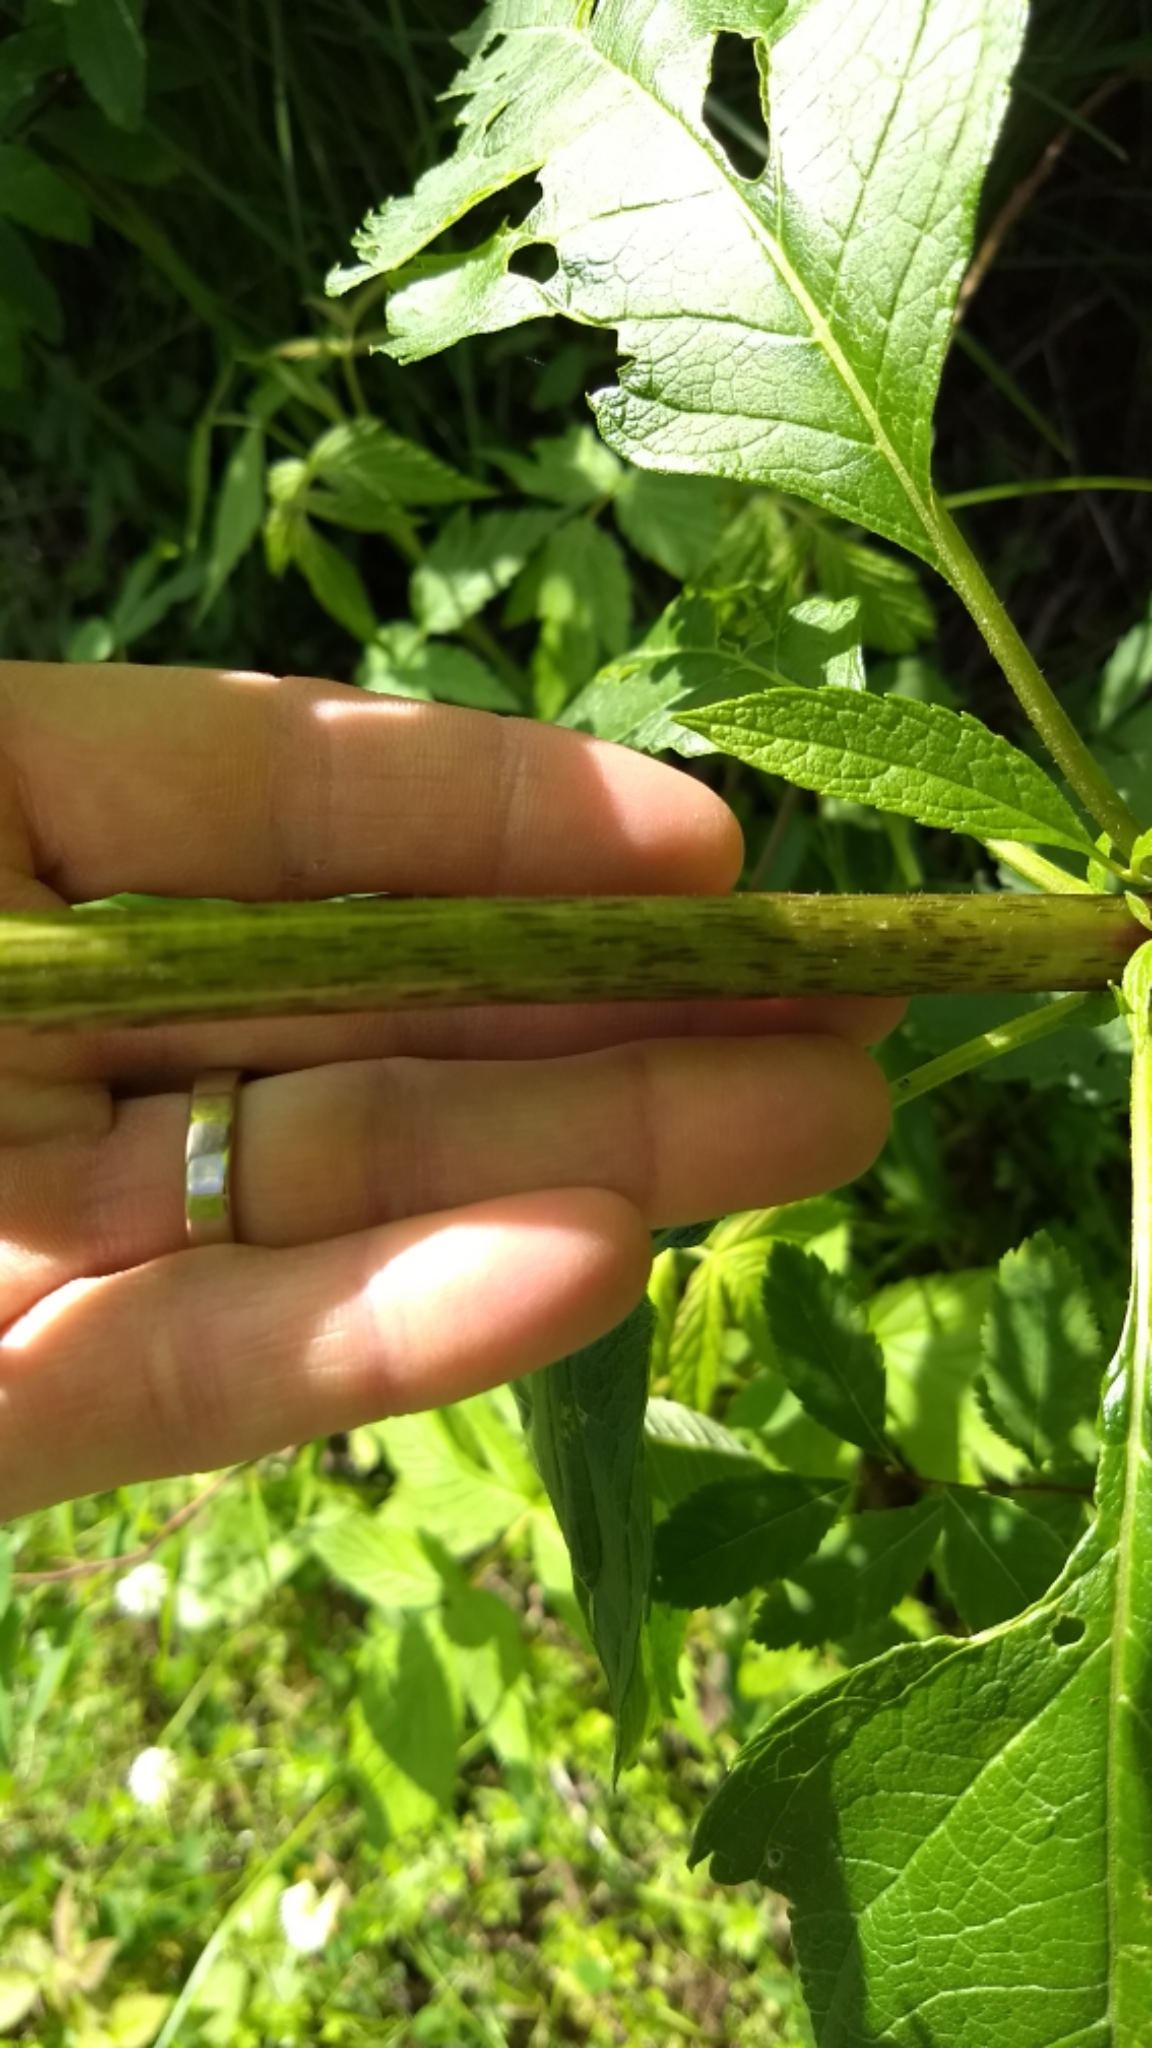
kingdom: Plantae
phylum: Tracheophyta
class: Magnoliopsida
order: Asterales
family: Asteraceae
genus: Eutrochium
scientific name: Eutrochium maculatum
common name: Spotted joe pye weed
